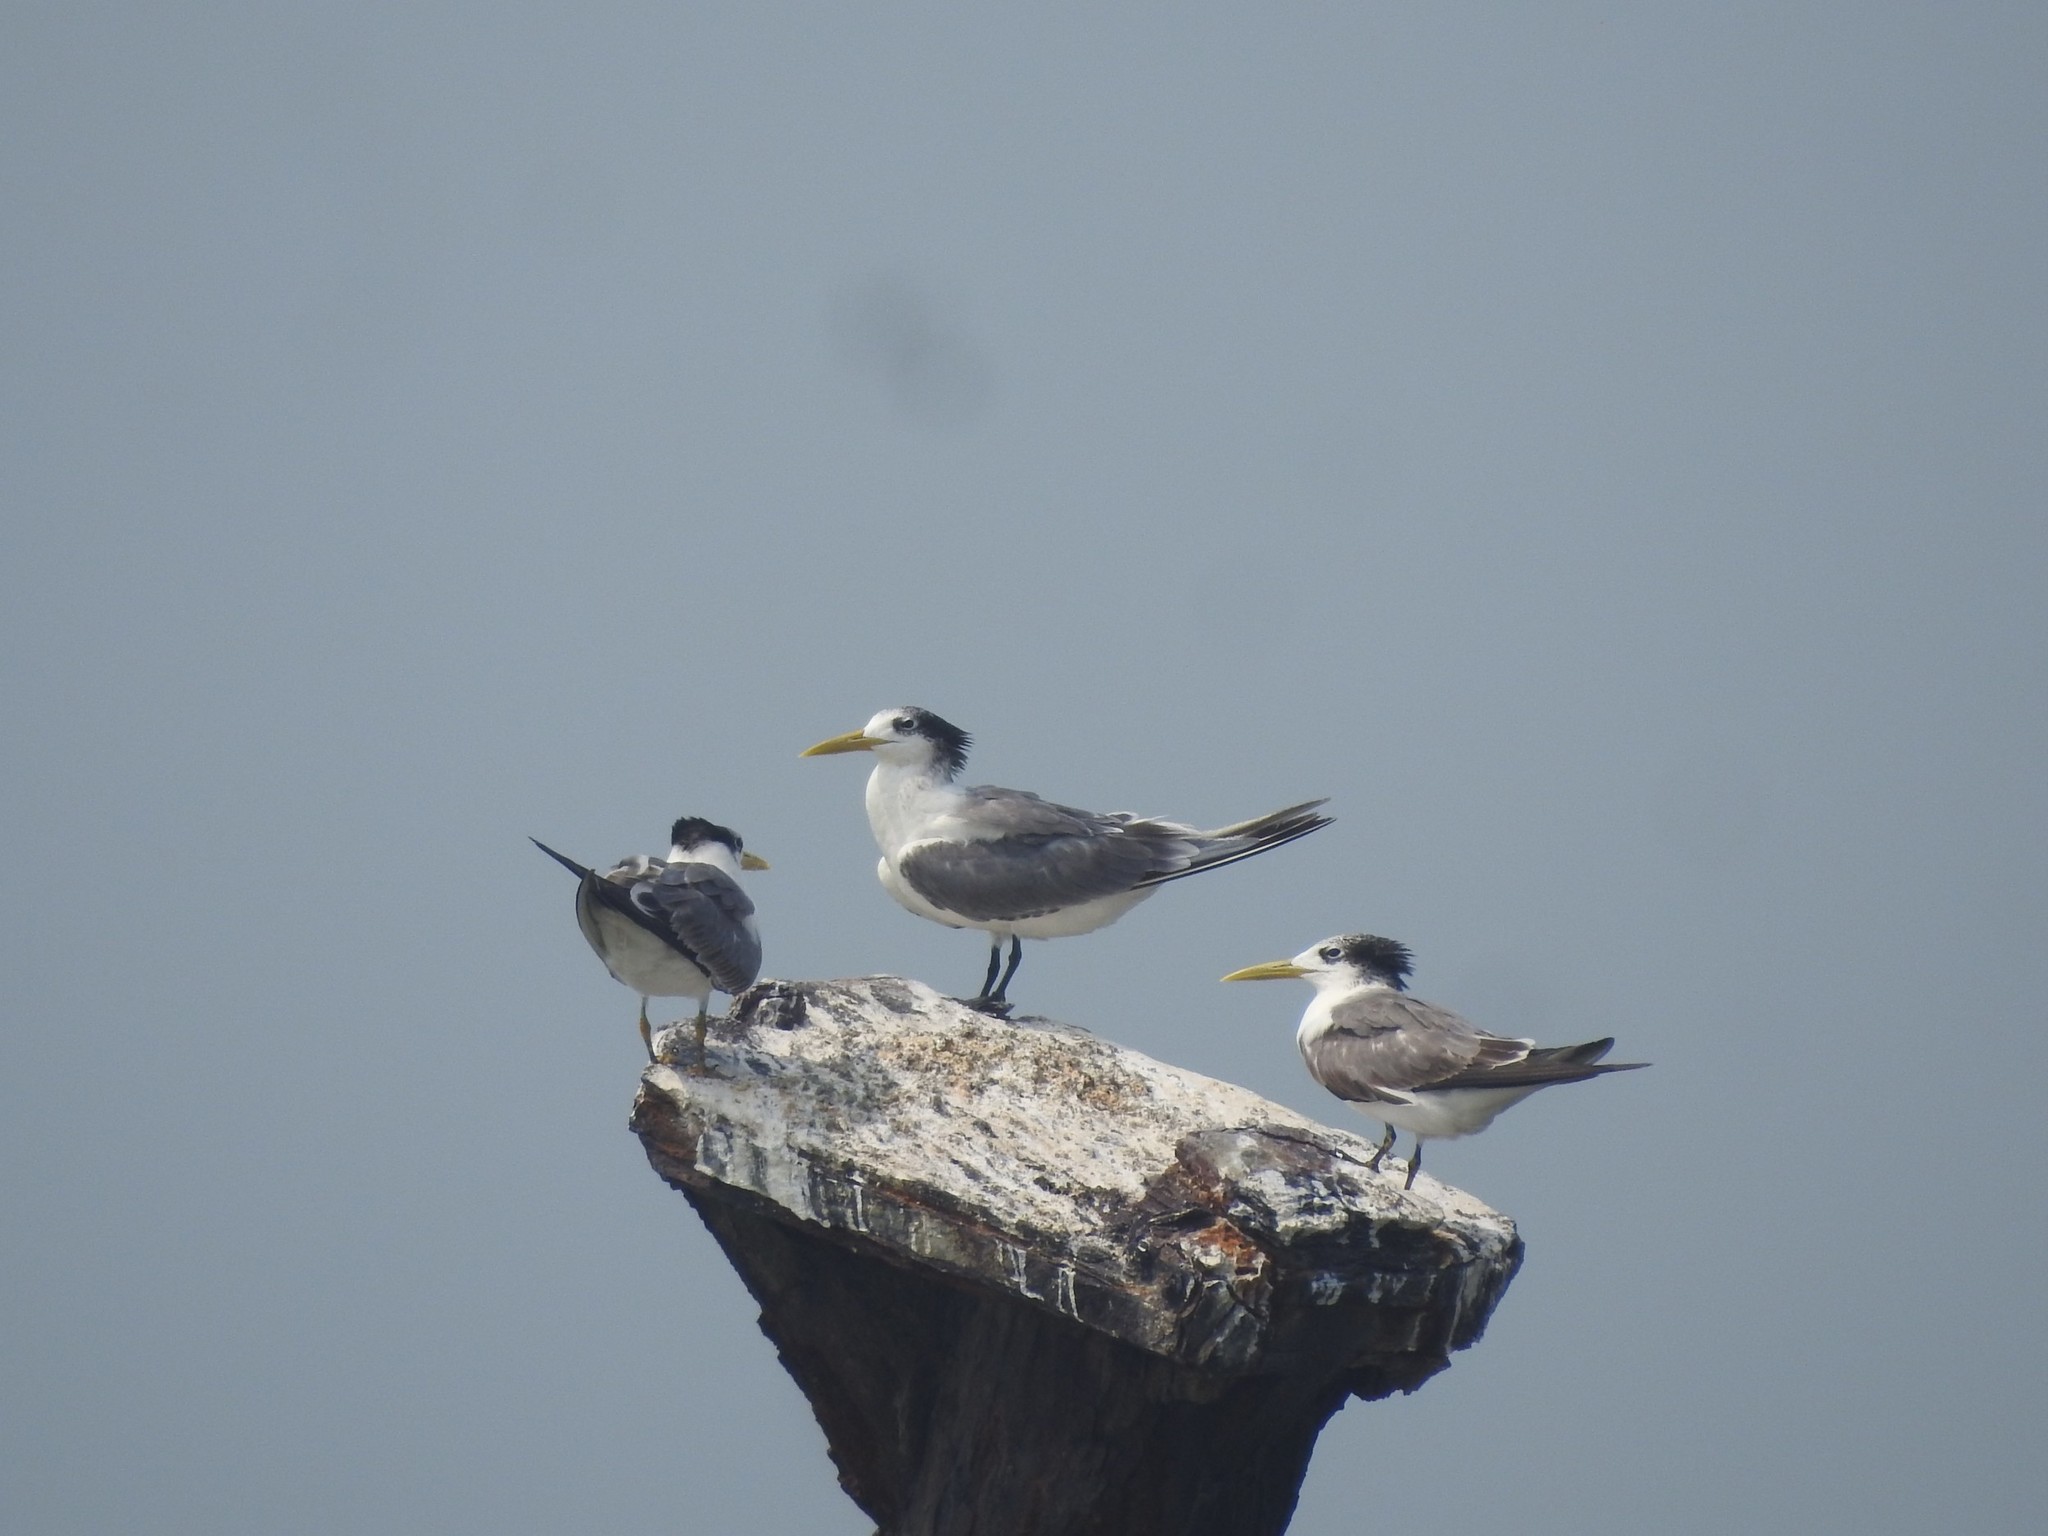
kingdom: Animalia
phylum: Chordata
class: Aves
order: Charadriiformes
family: Laridae
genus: Thalasseus
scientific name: Thalasseus bergii
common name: Greater crested tern
